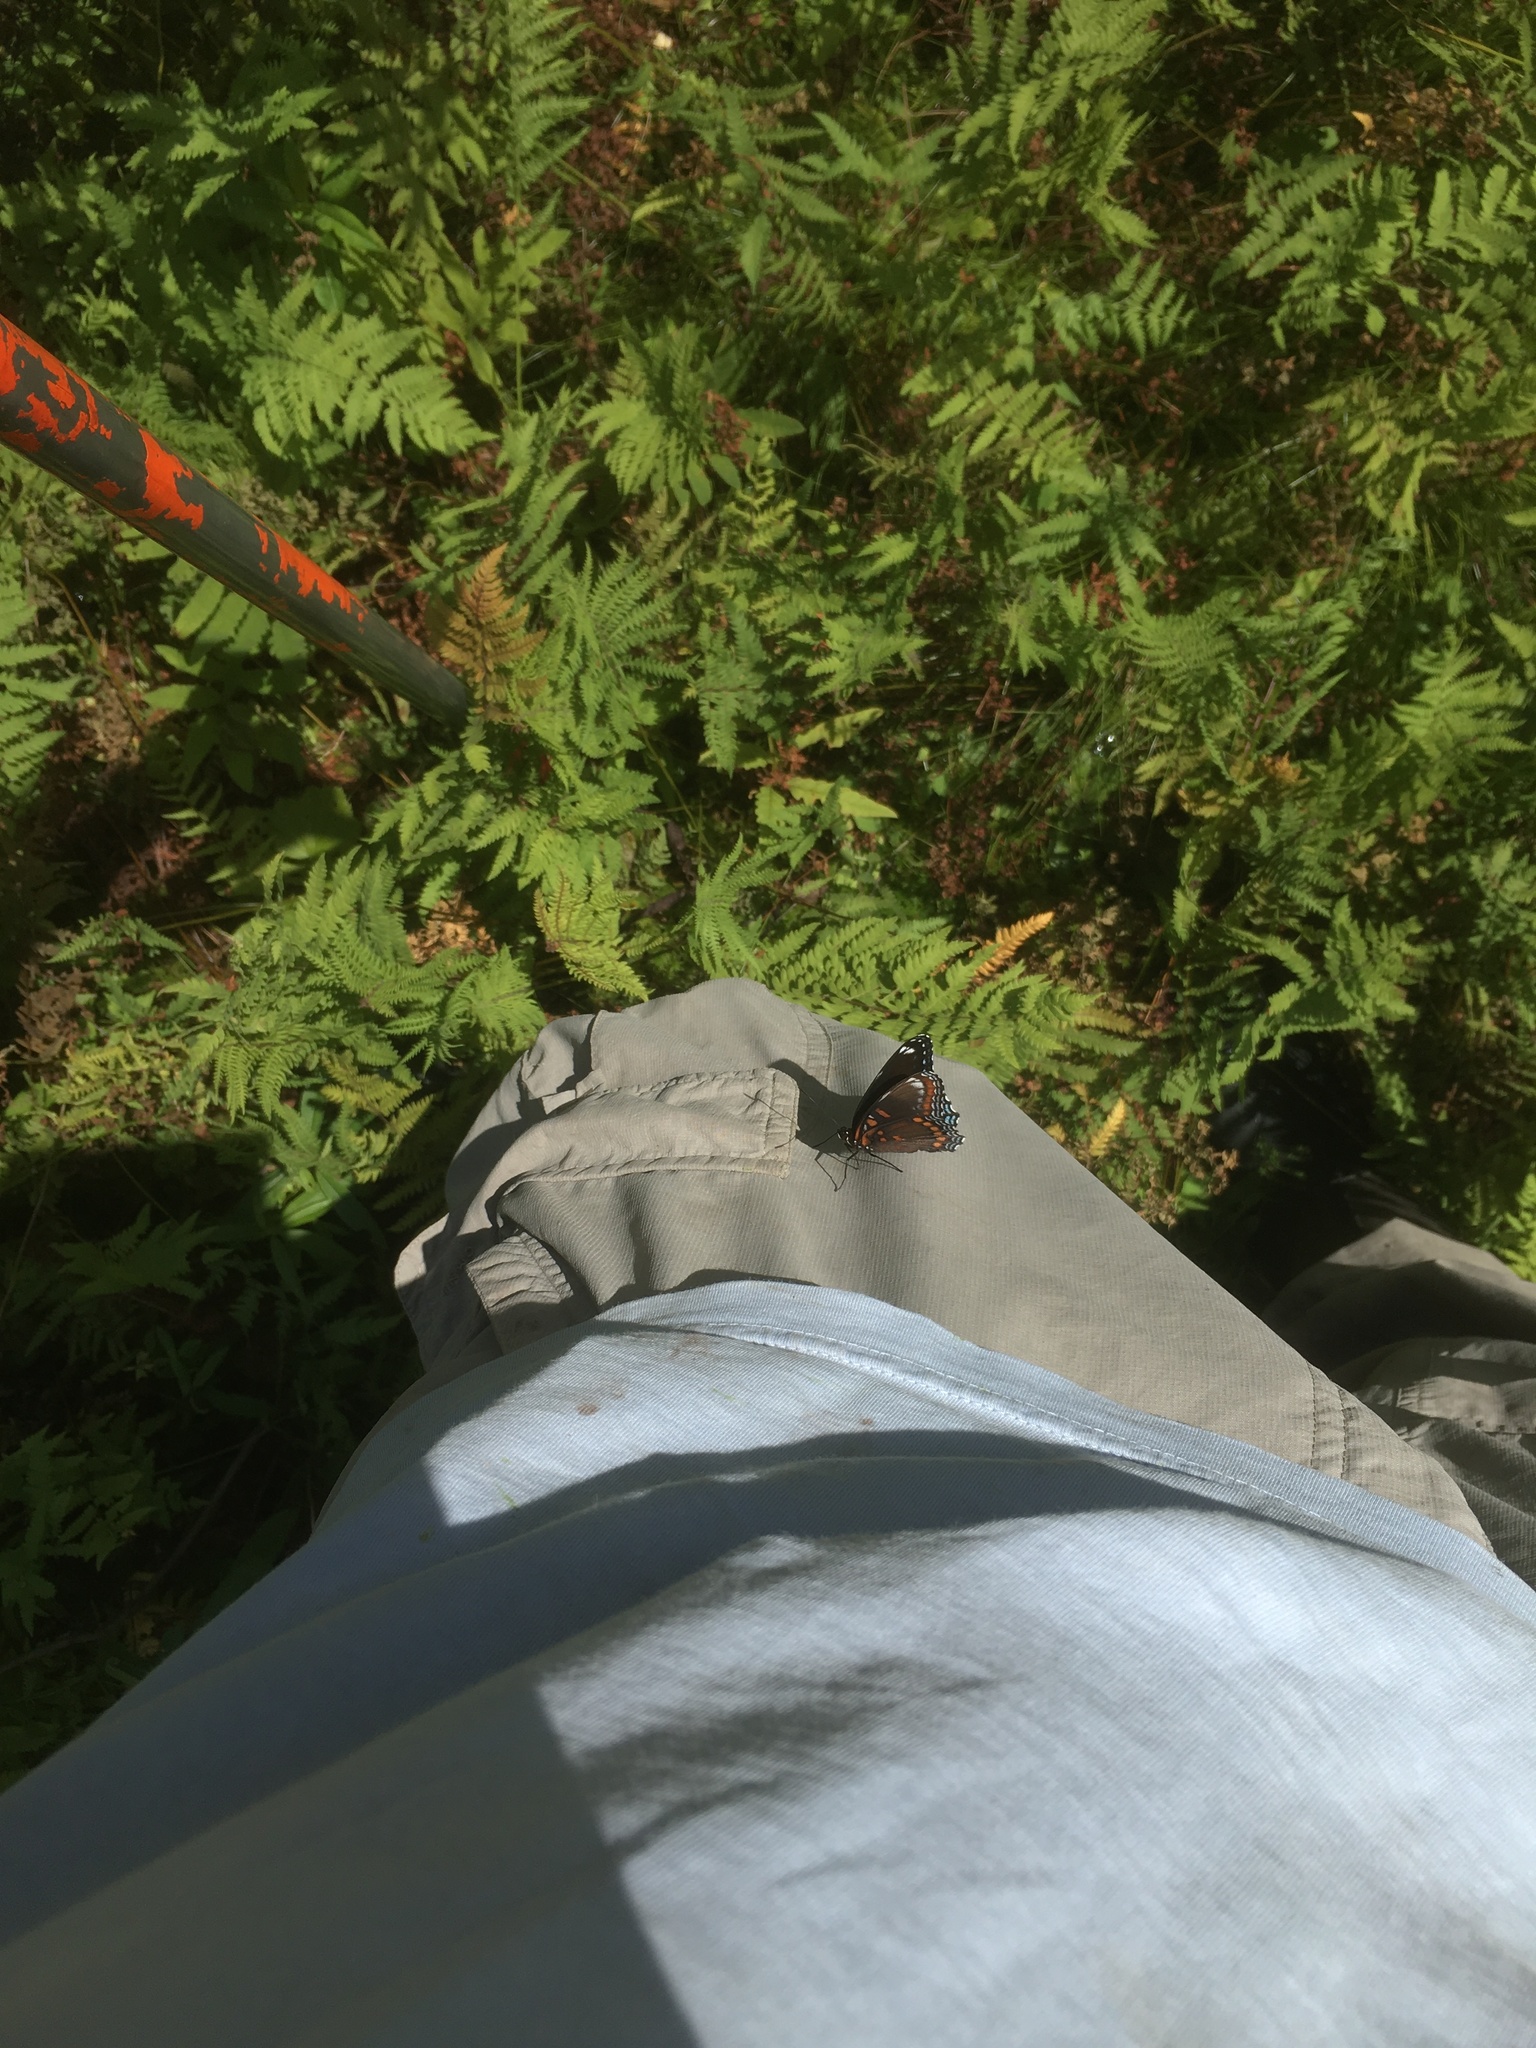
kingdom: Animalia
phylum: Arthropoda
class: Insecta
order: Lepidoptera
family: Nymphalidae
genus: Limenitis
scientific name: Limenitis astyanax
